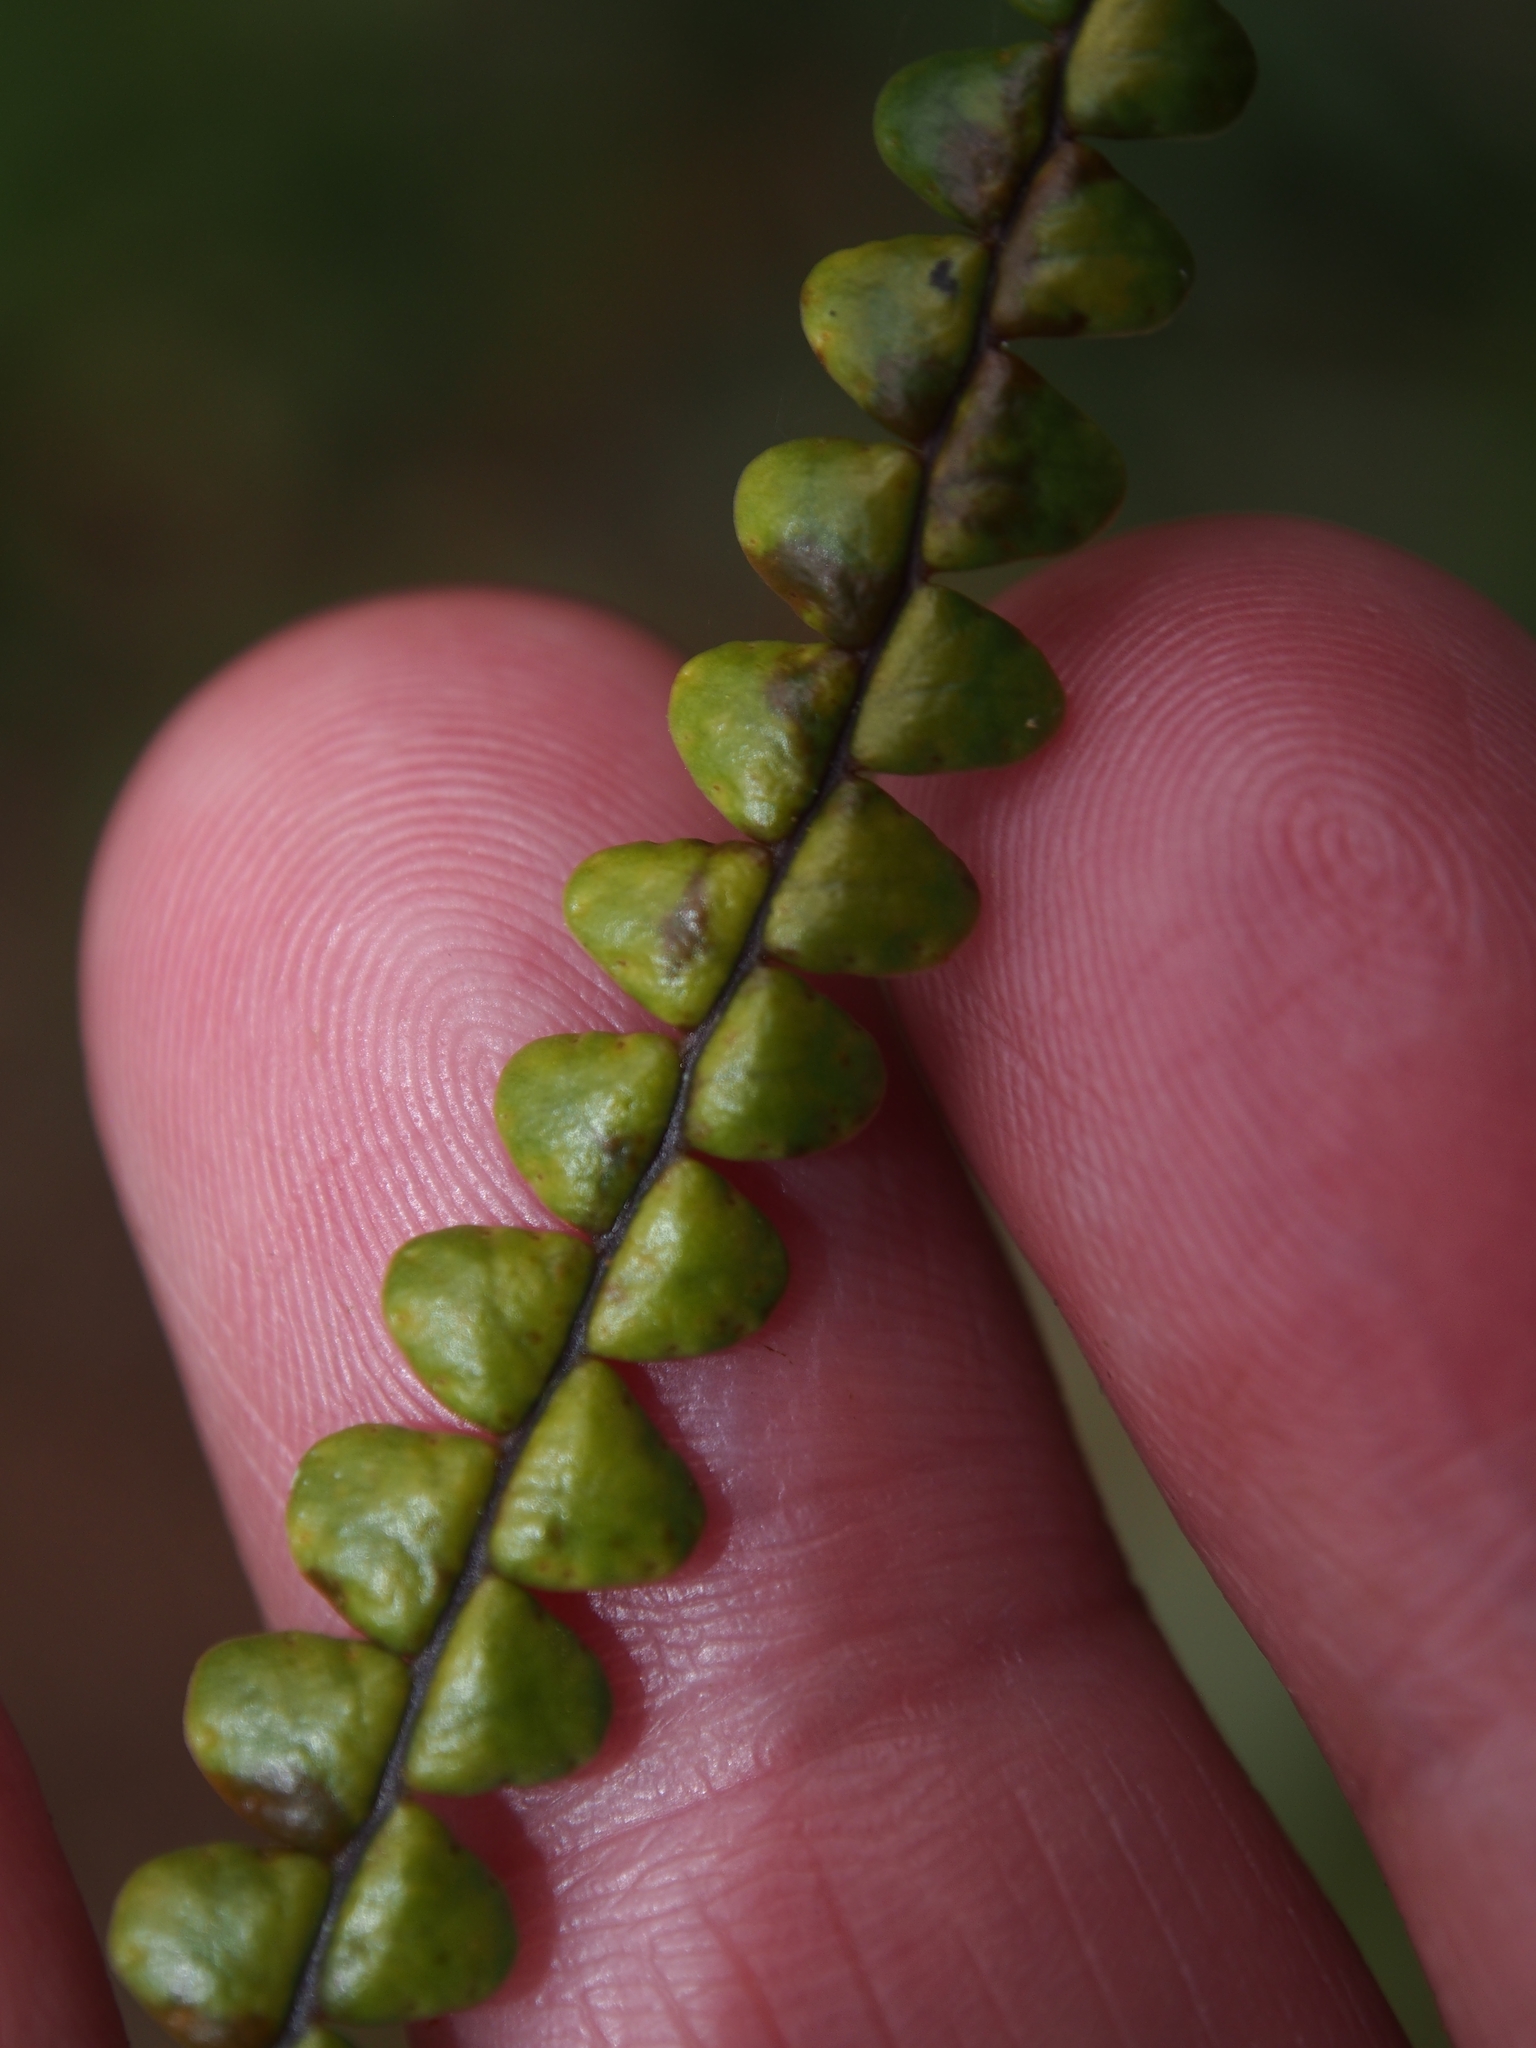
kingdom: Plantae
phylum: Tracheophyta
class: Polypodiopsida
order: Polypodiales
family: Polypodiaceae
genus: Melpomene
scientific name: Melpomene moniliformis
